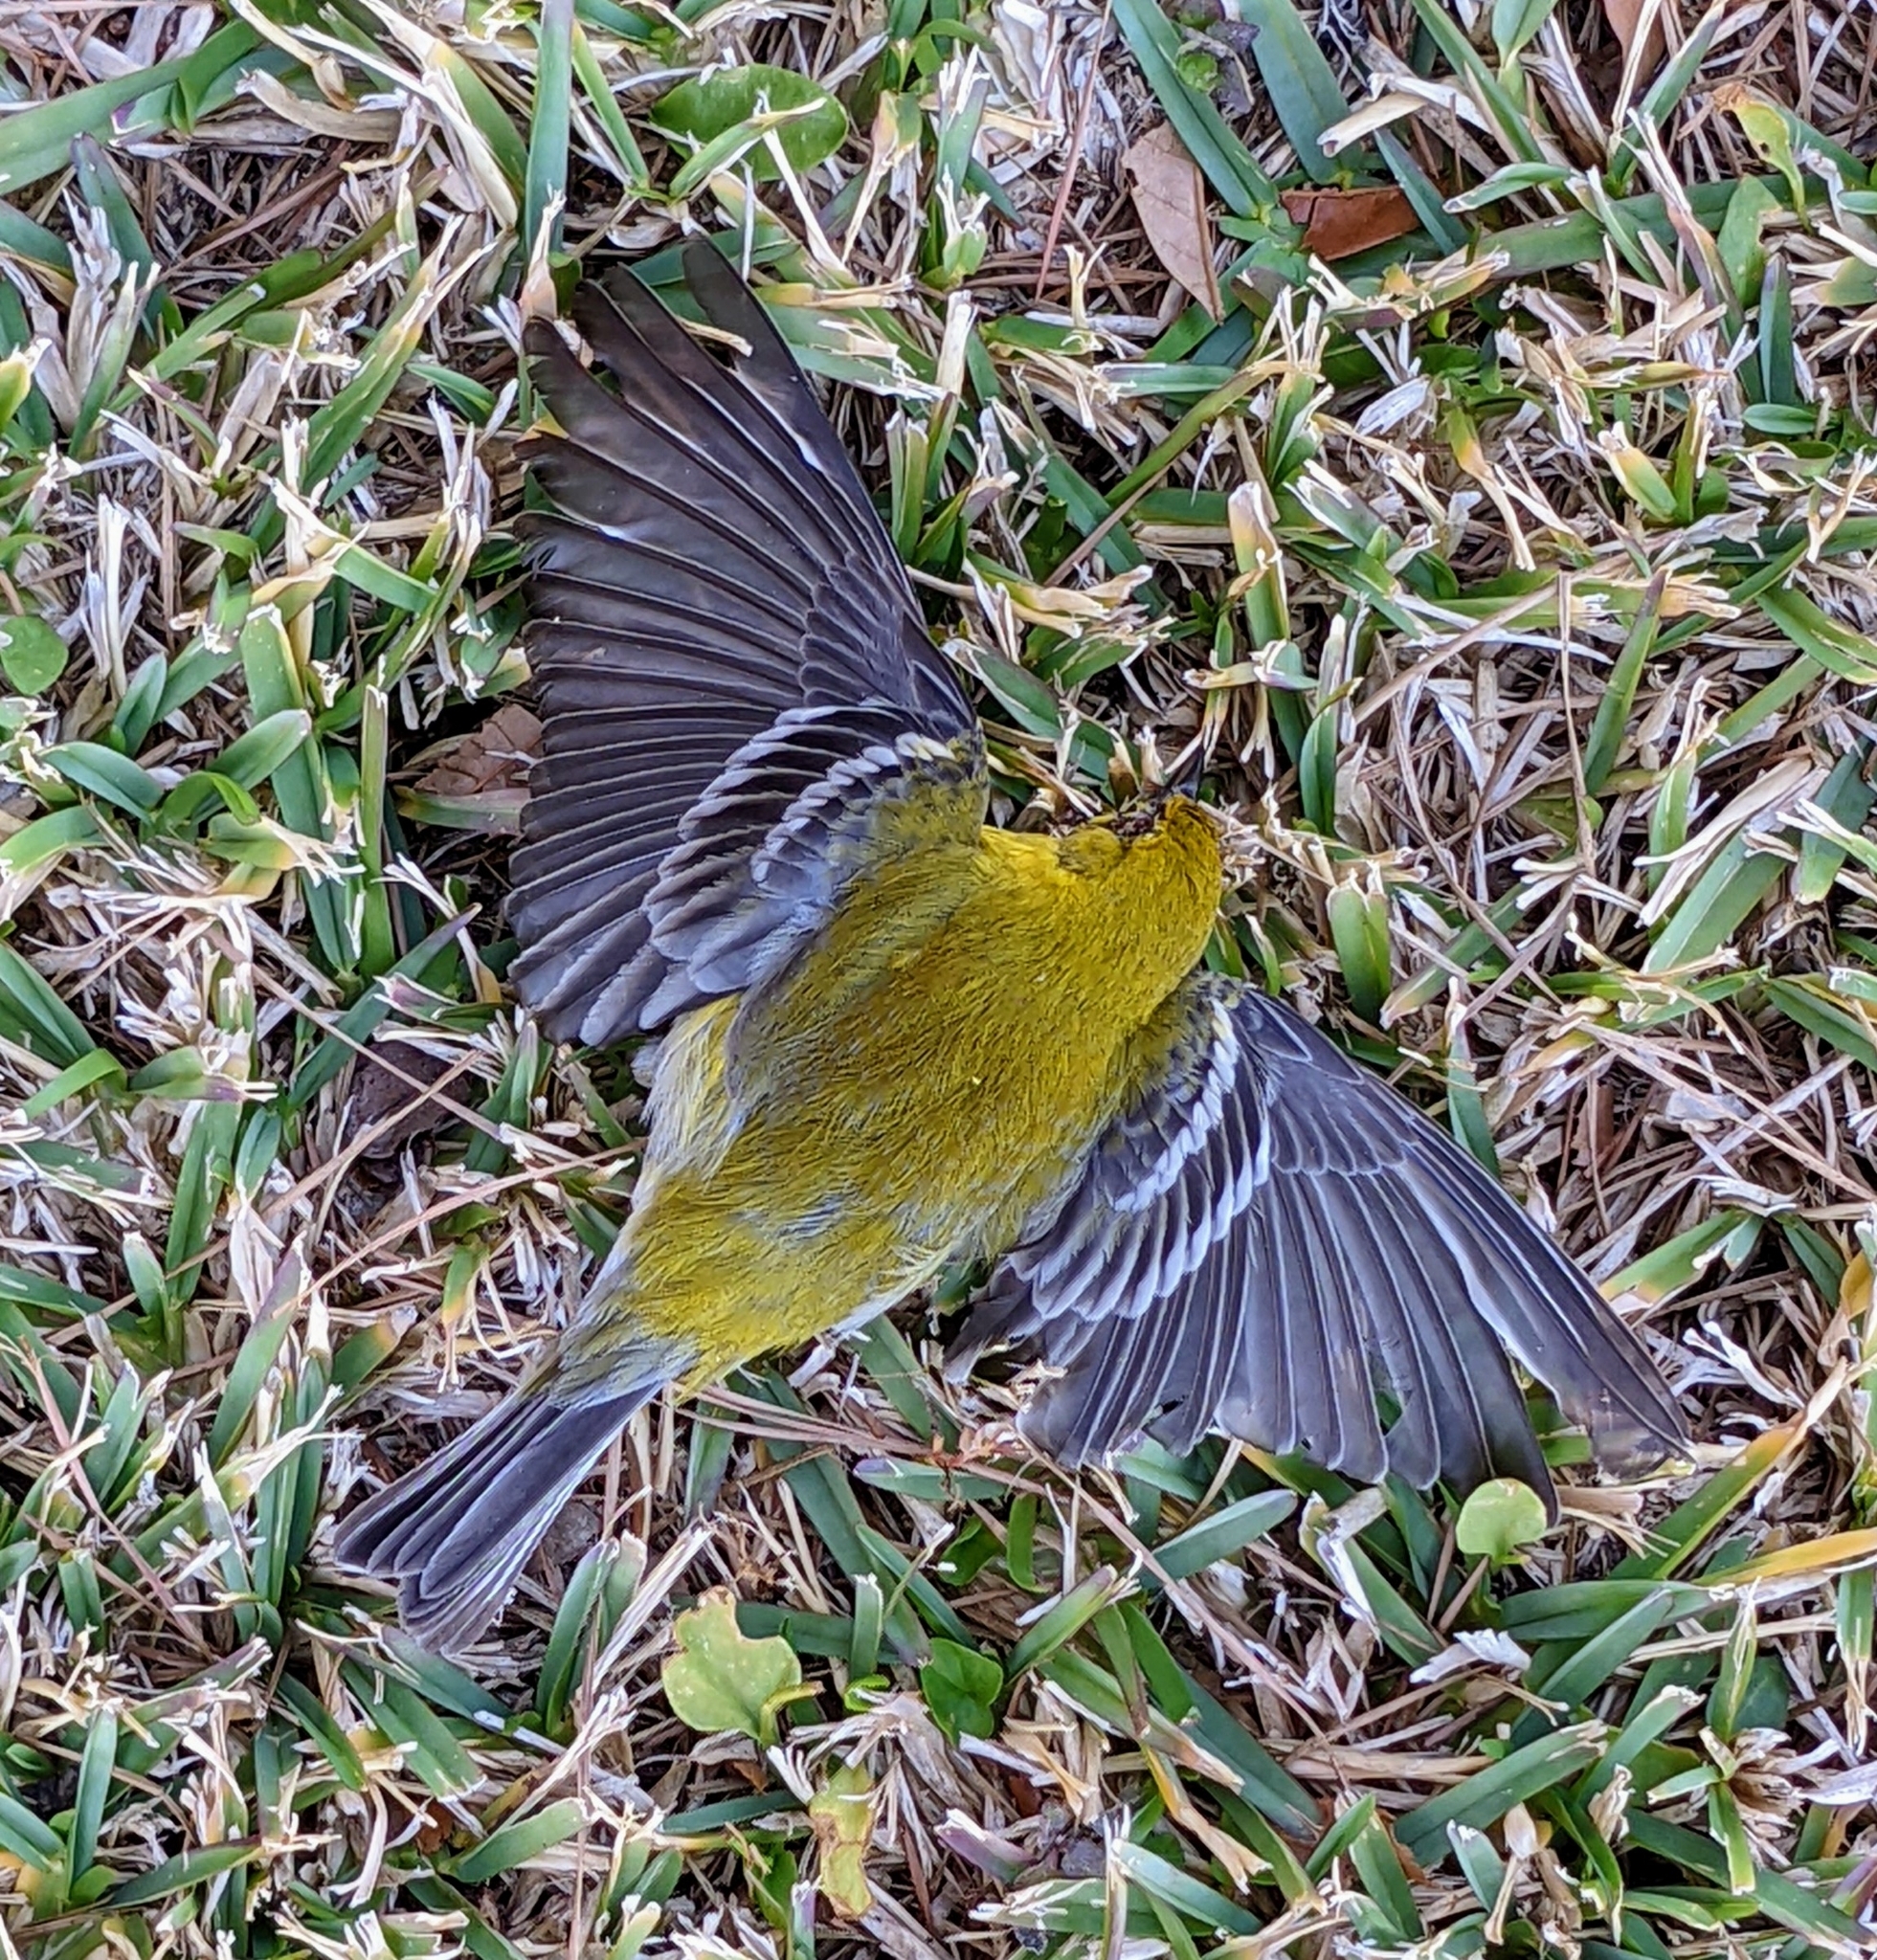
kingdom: Animalia
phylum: Chordata
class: Aves
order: Passeriformes
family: Parulidae
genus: Setophaga
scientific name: Setophaga pinus
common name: Pine warbler
